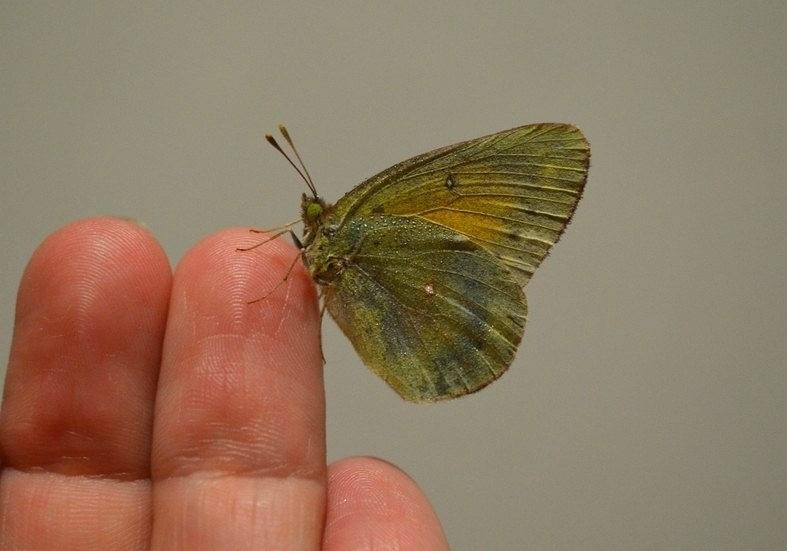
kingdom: Animalia
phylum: Arthropoda
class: Insecta
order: Lepidoptera
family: Pieridae
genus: Colias
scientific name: Colias lesbia
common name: Lesbia clouded yellow
